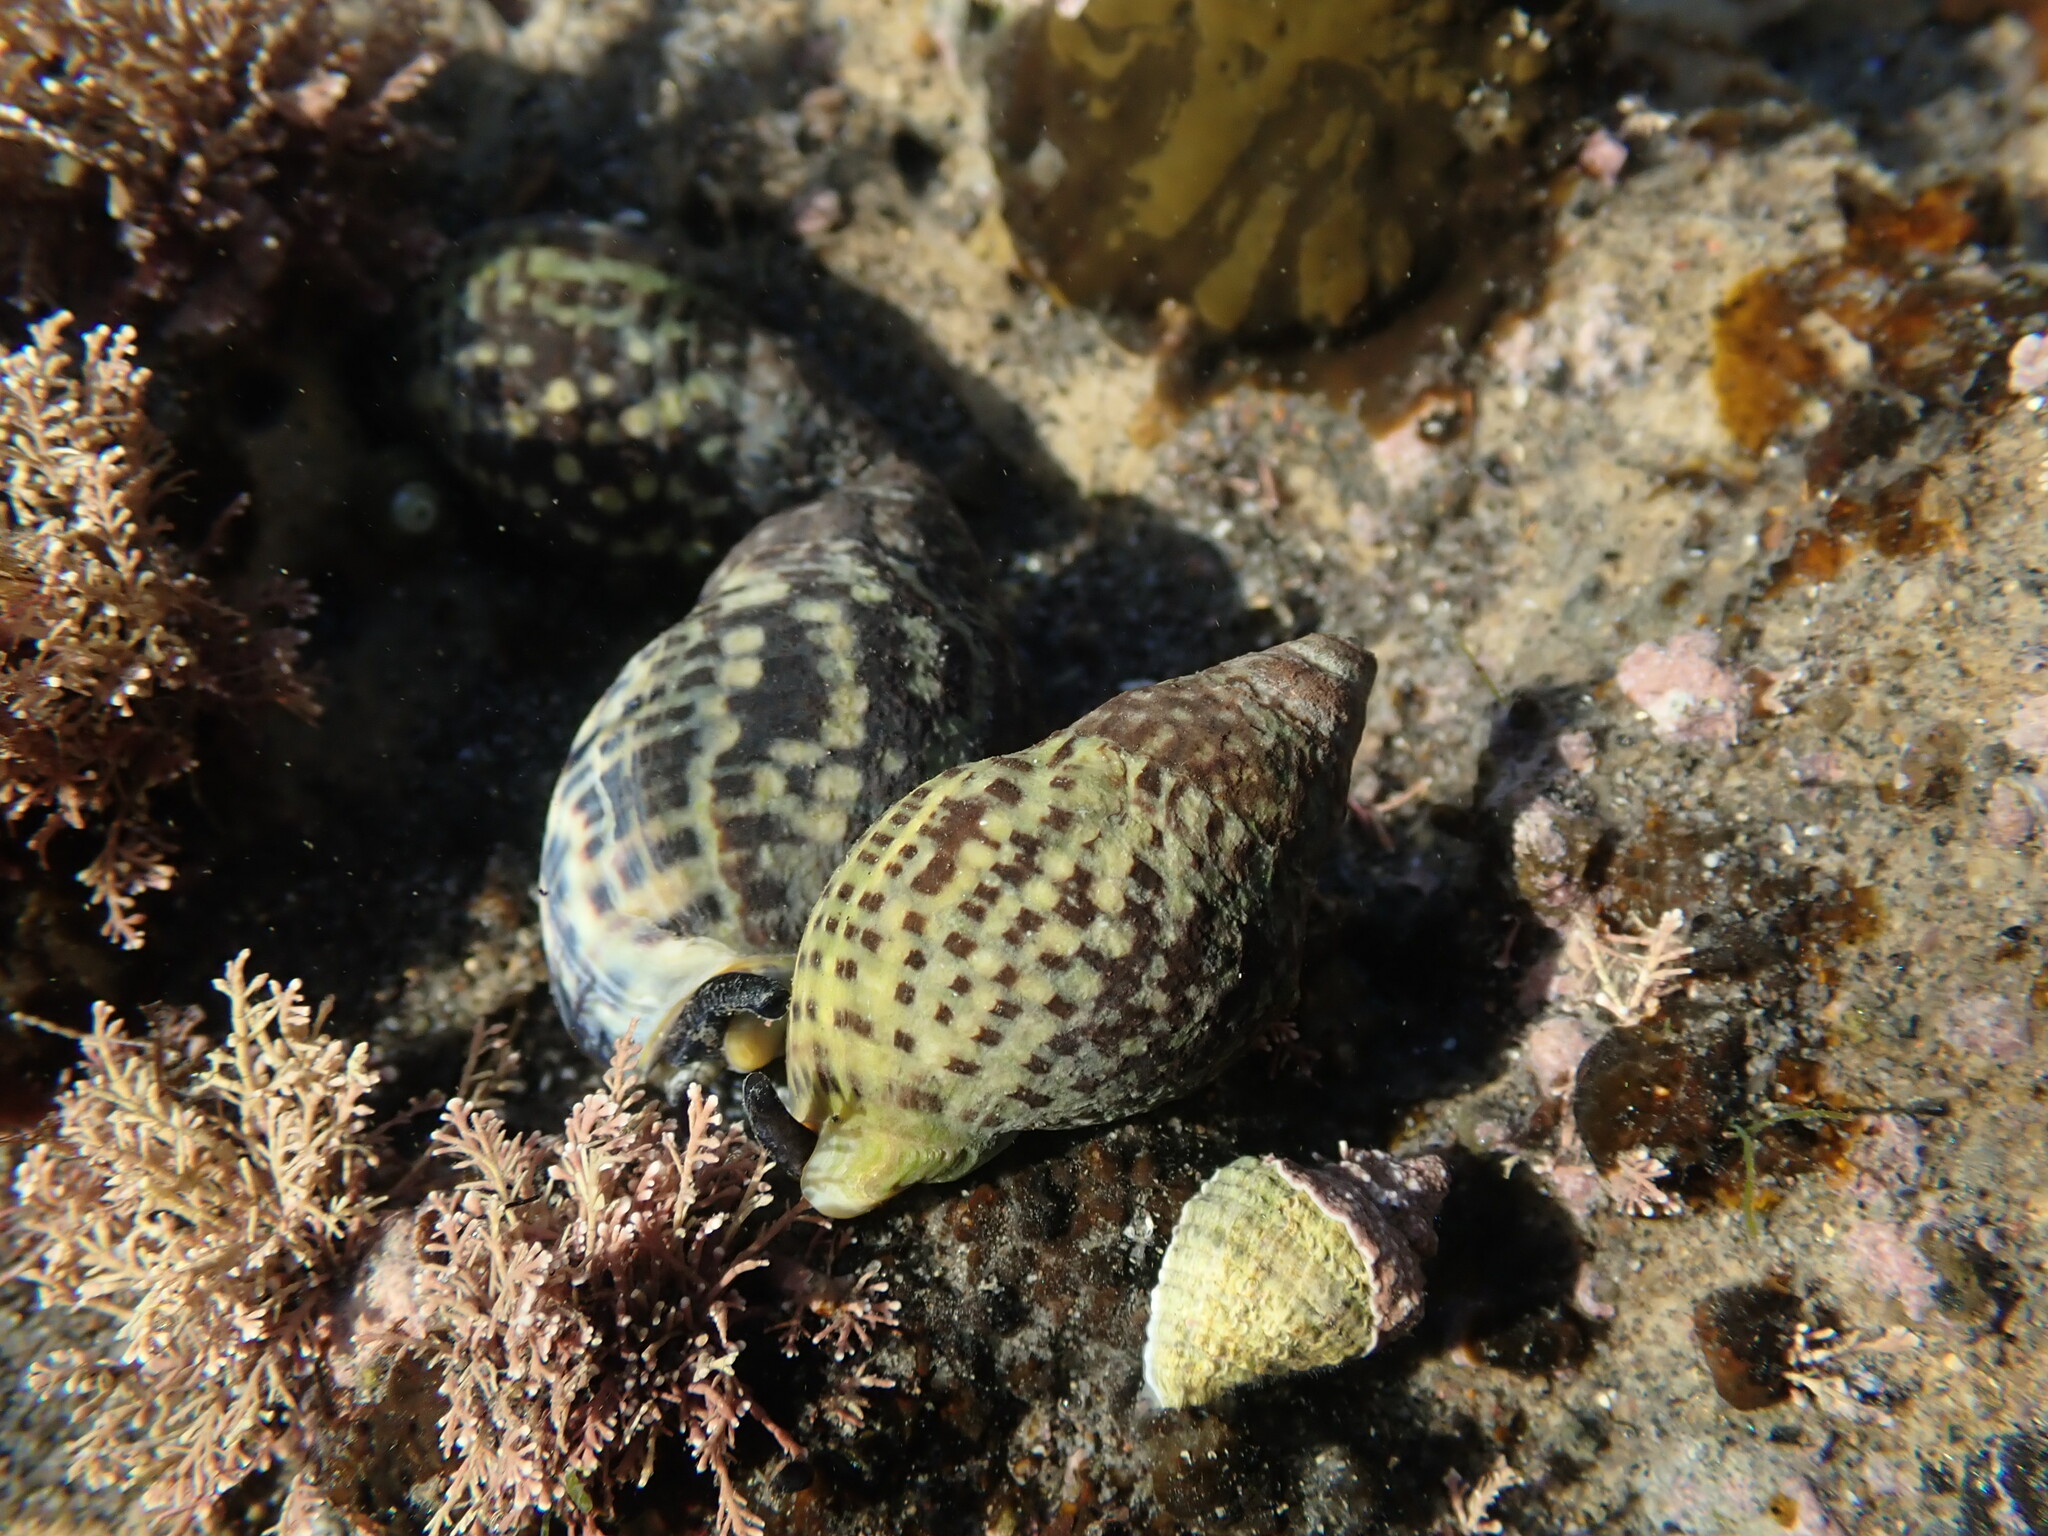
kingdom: Animalia
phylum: Mollusca
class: Gastropoda
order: Neogastropoda
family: Cominellidae
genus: Cominella
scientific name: Cominella maculosa
